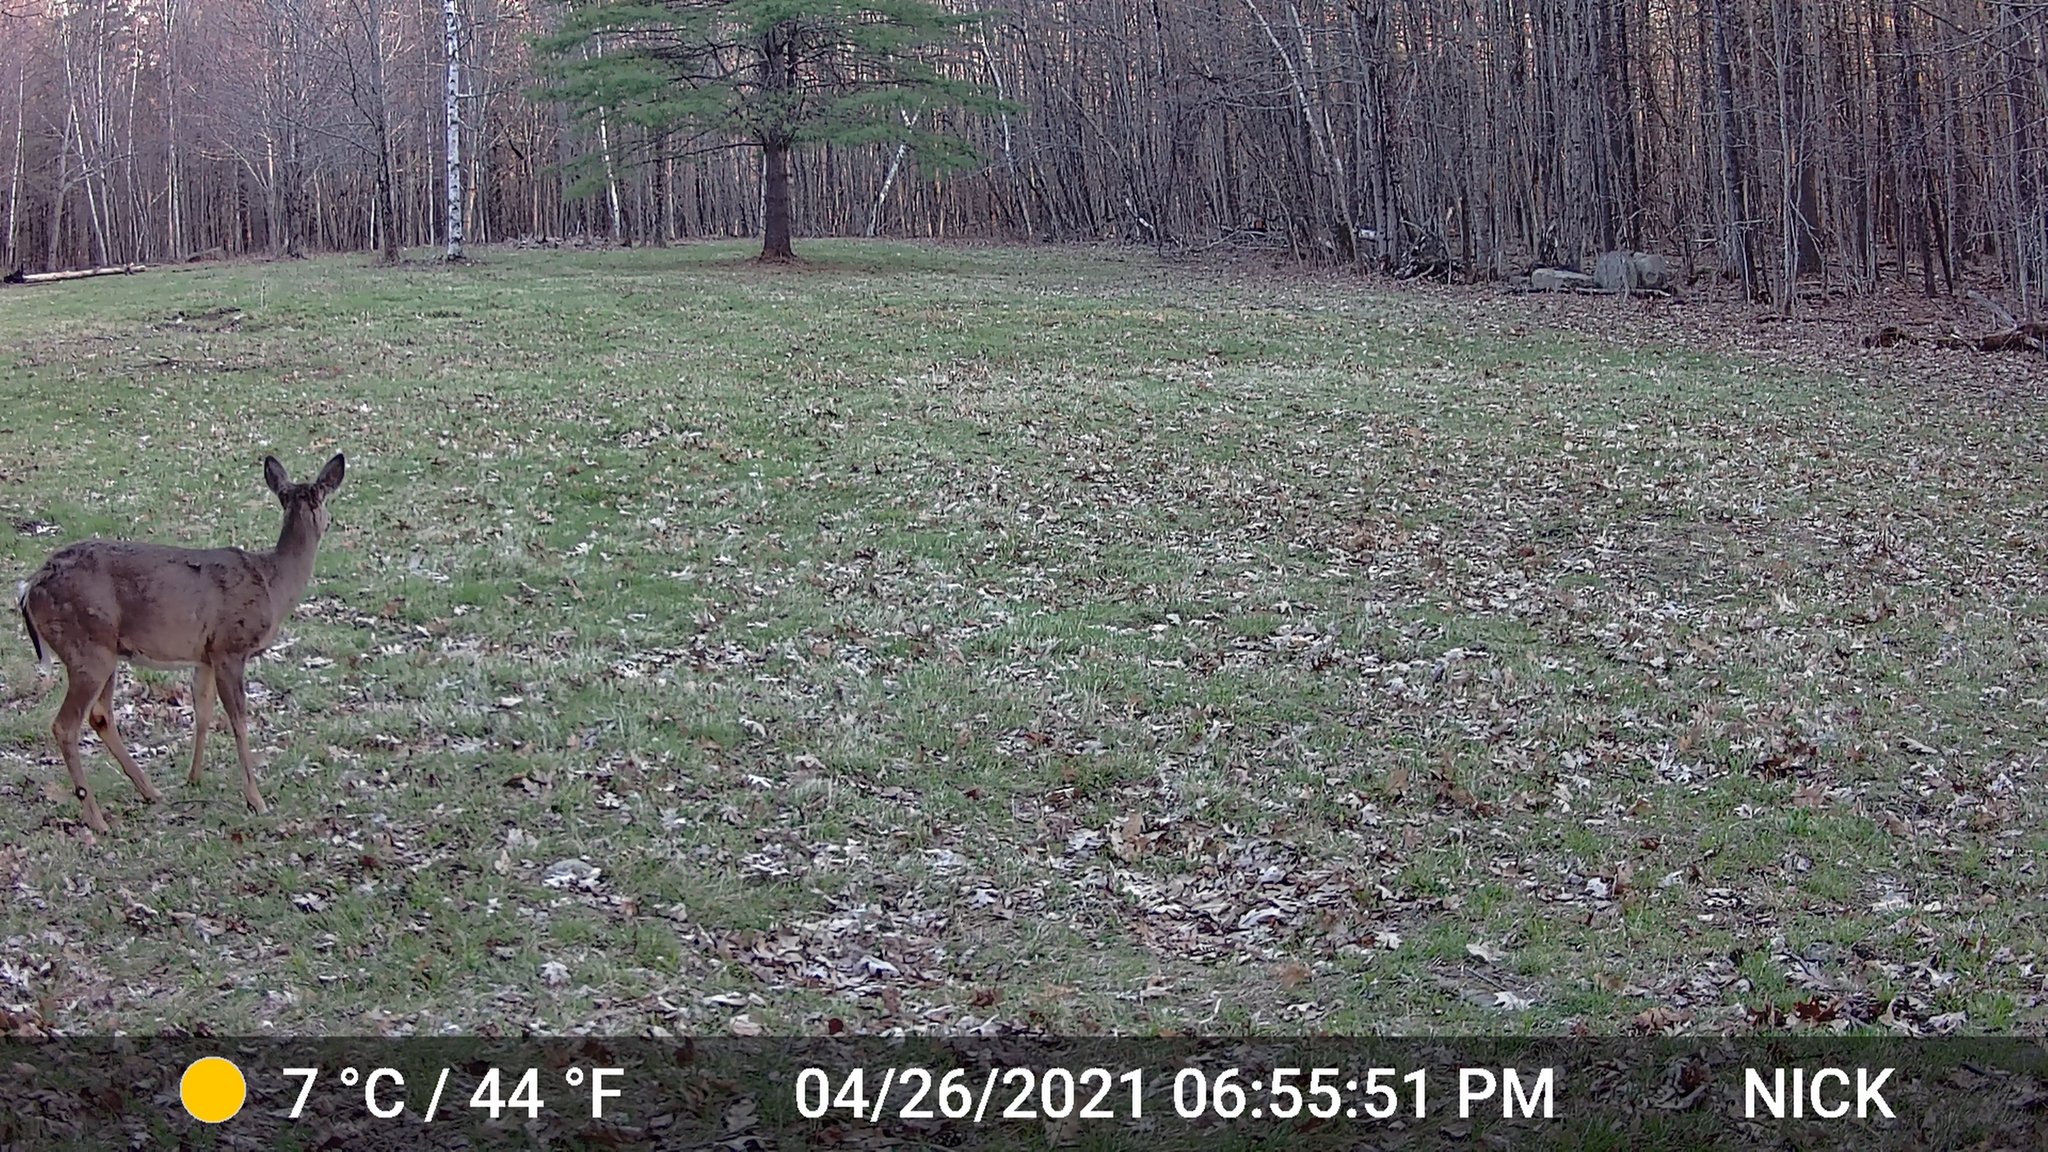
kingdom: Animalia
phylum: Chordata
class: Mammalia
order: Artiodactyla
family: Cervidae
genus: Odocoileus
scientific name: Odocoileus virginianus
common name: White-tailed deer
